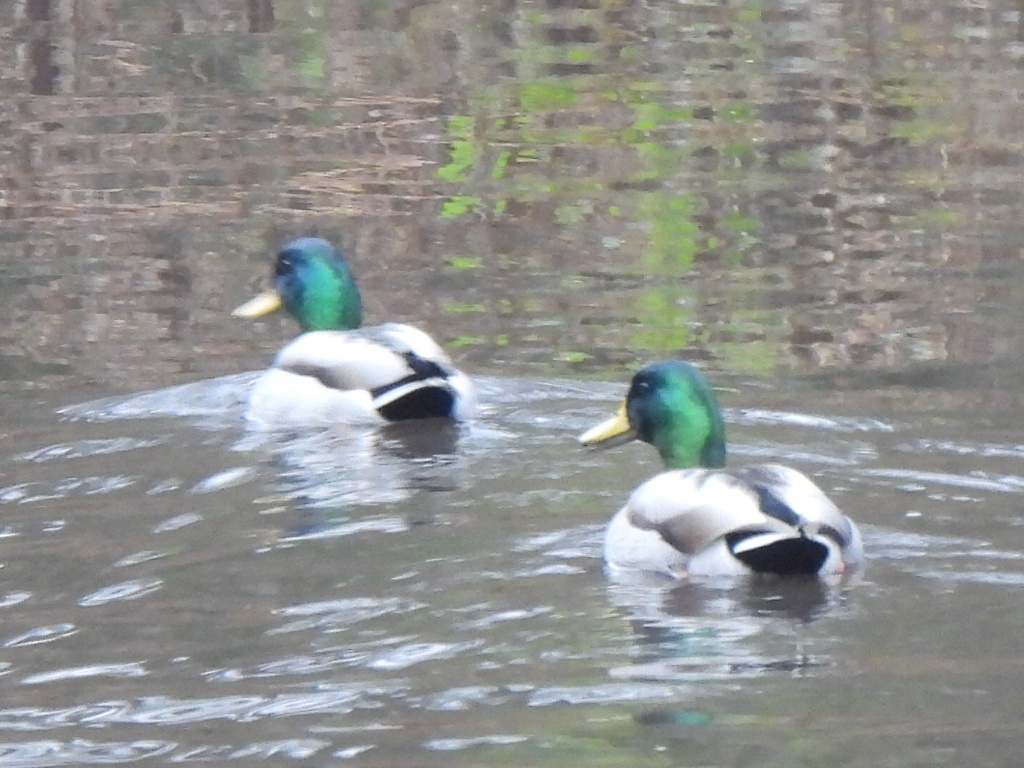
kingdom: Animalia
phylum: Chordata
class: Aves
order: Anseriformes
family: Anatidae
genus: Anas
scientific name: Anas platyrhynchos
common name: Mallard
